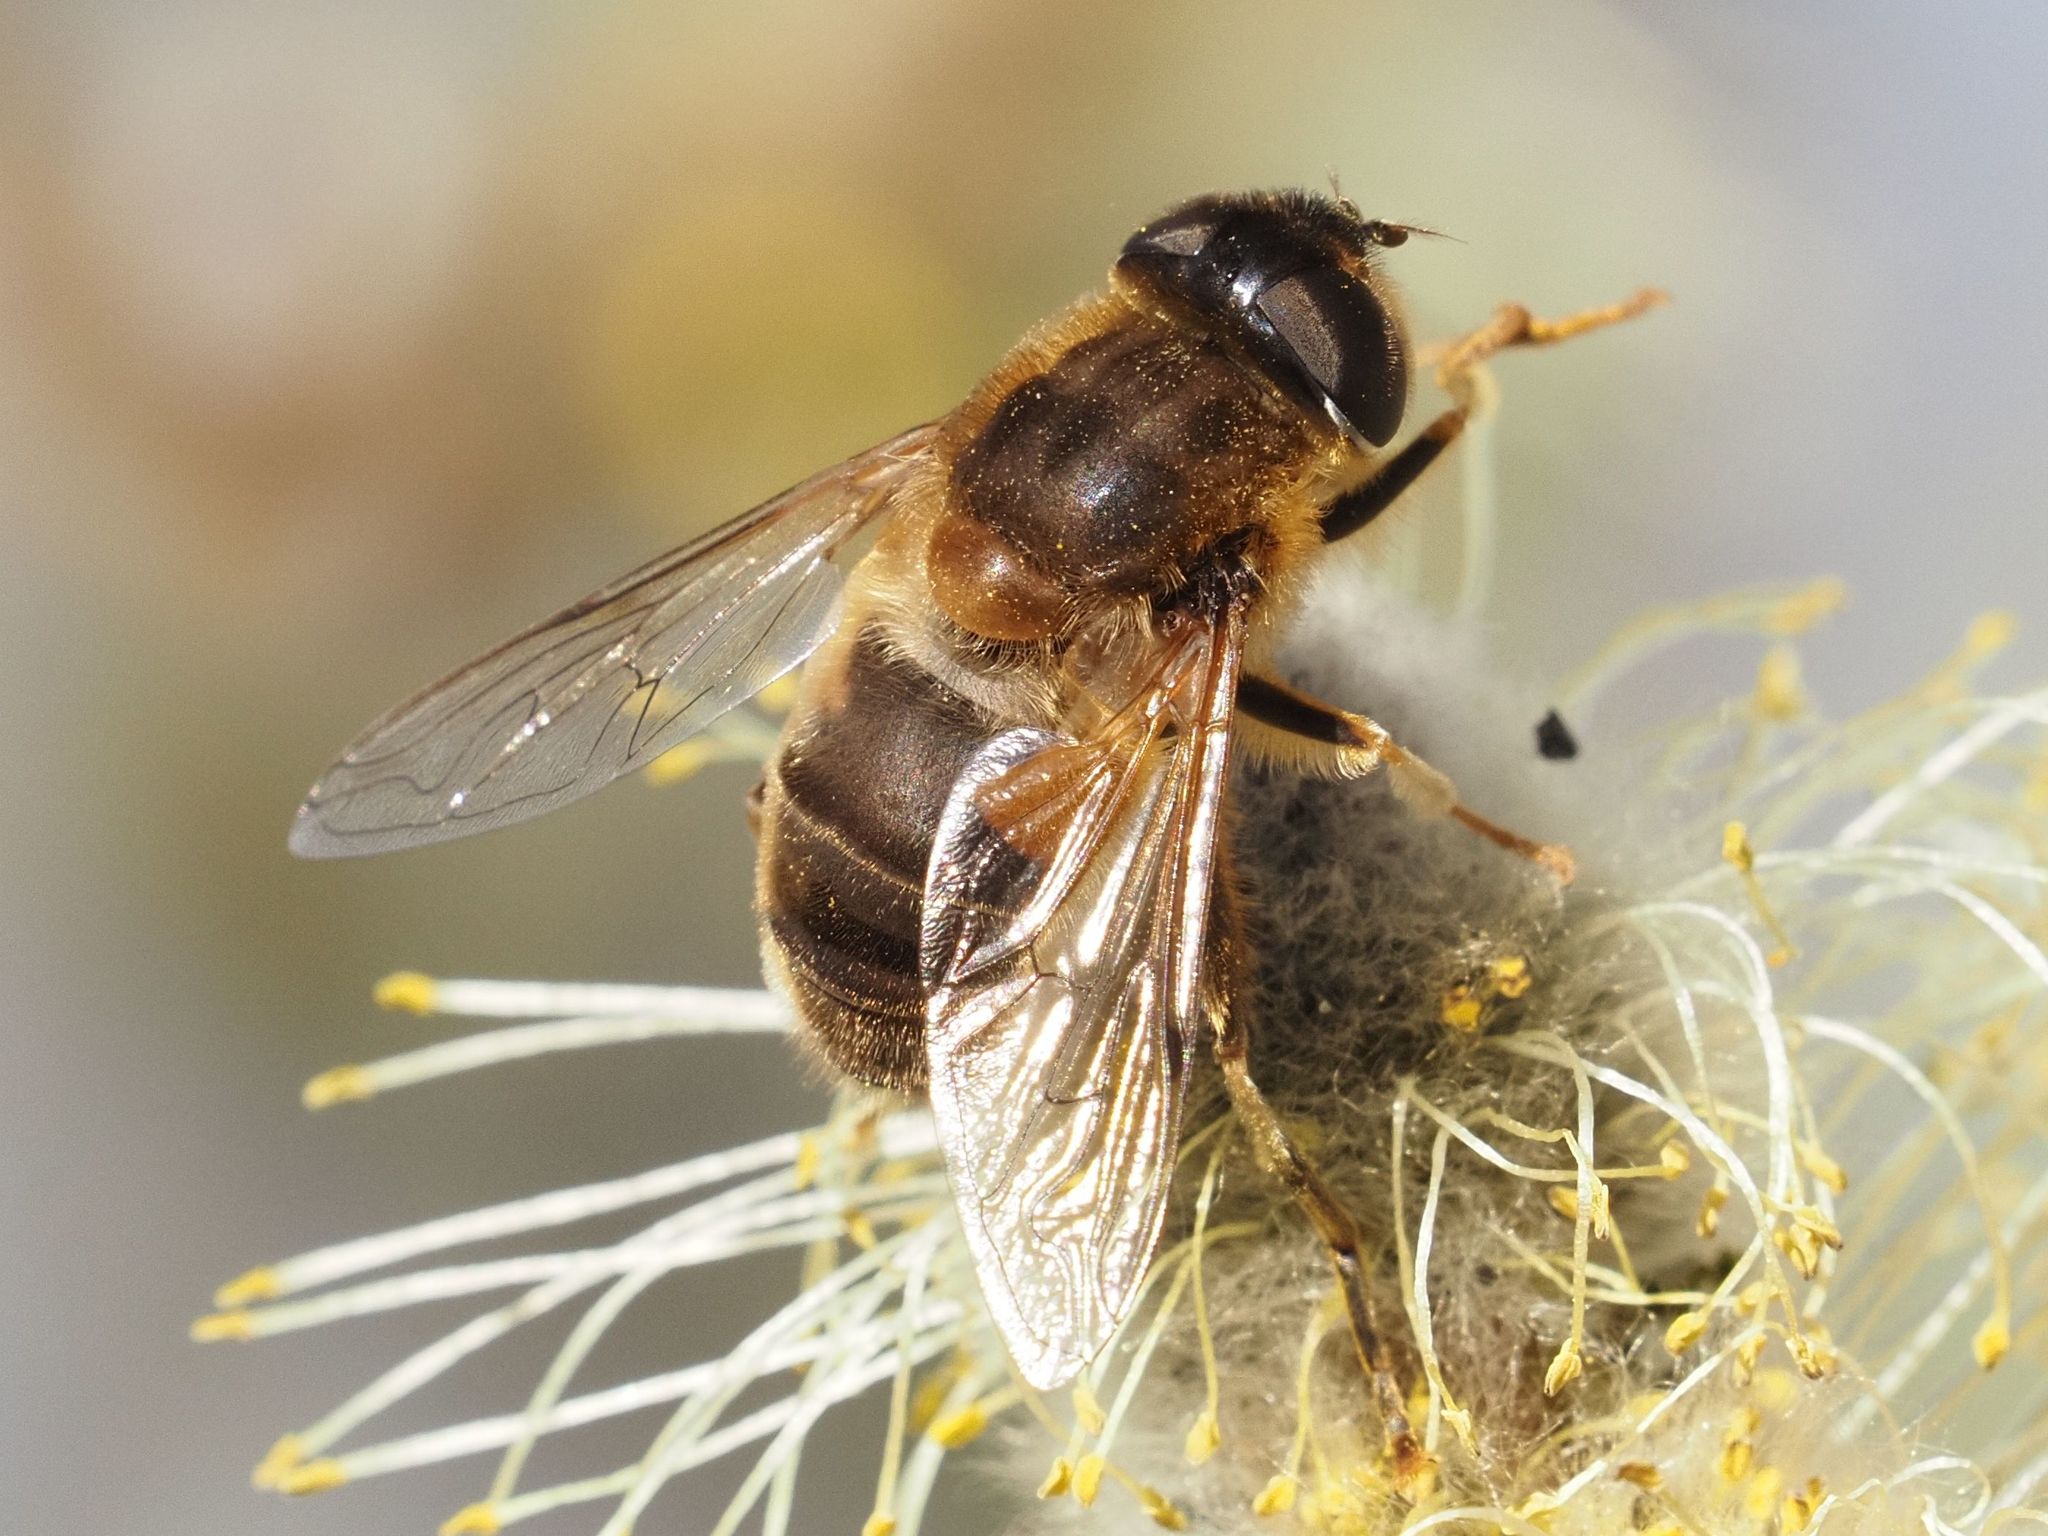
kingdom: Animalia
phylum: Arthropoda
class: Insecta
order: Diptera
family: Syrphidae
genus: Eristalis
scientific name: Eristalis pertinax
